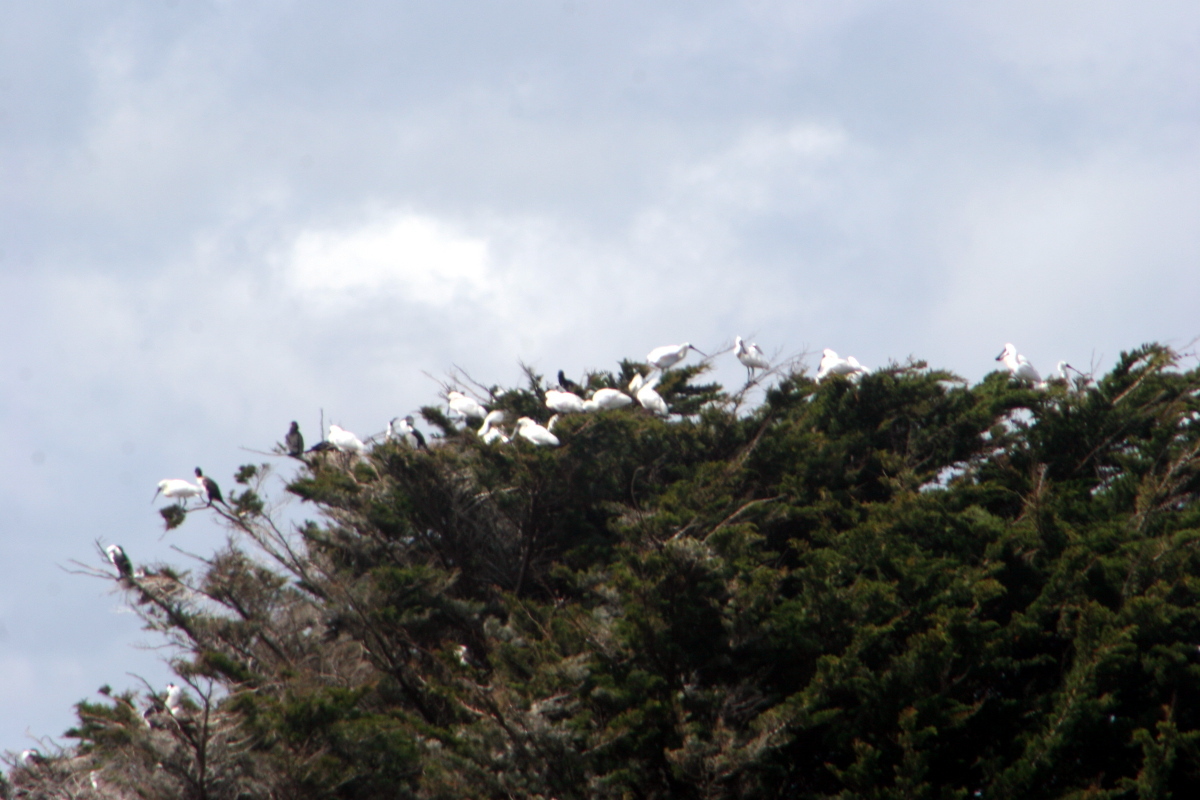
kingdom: Animalia
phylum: Chordata
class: Aves
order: Suliformes
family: Phalacrocoracidae
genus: Phalacrocorax
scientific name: Phalacrocorax varius
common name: Pied cormorant
